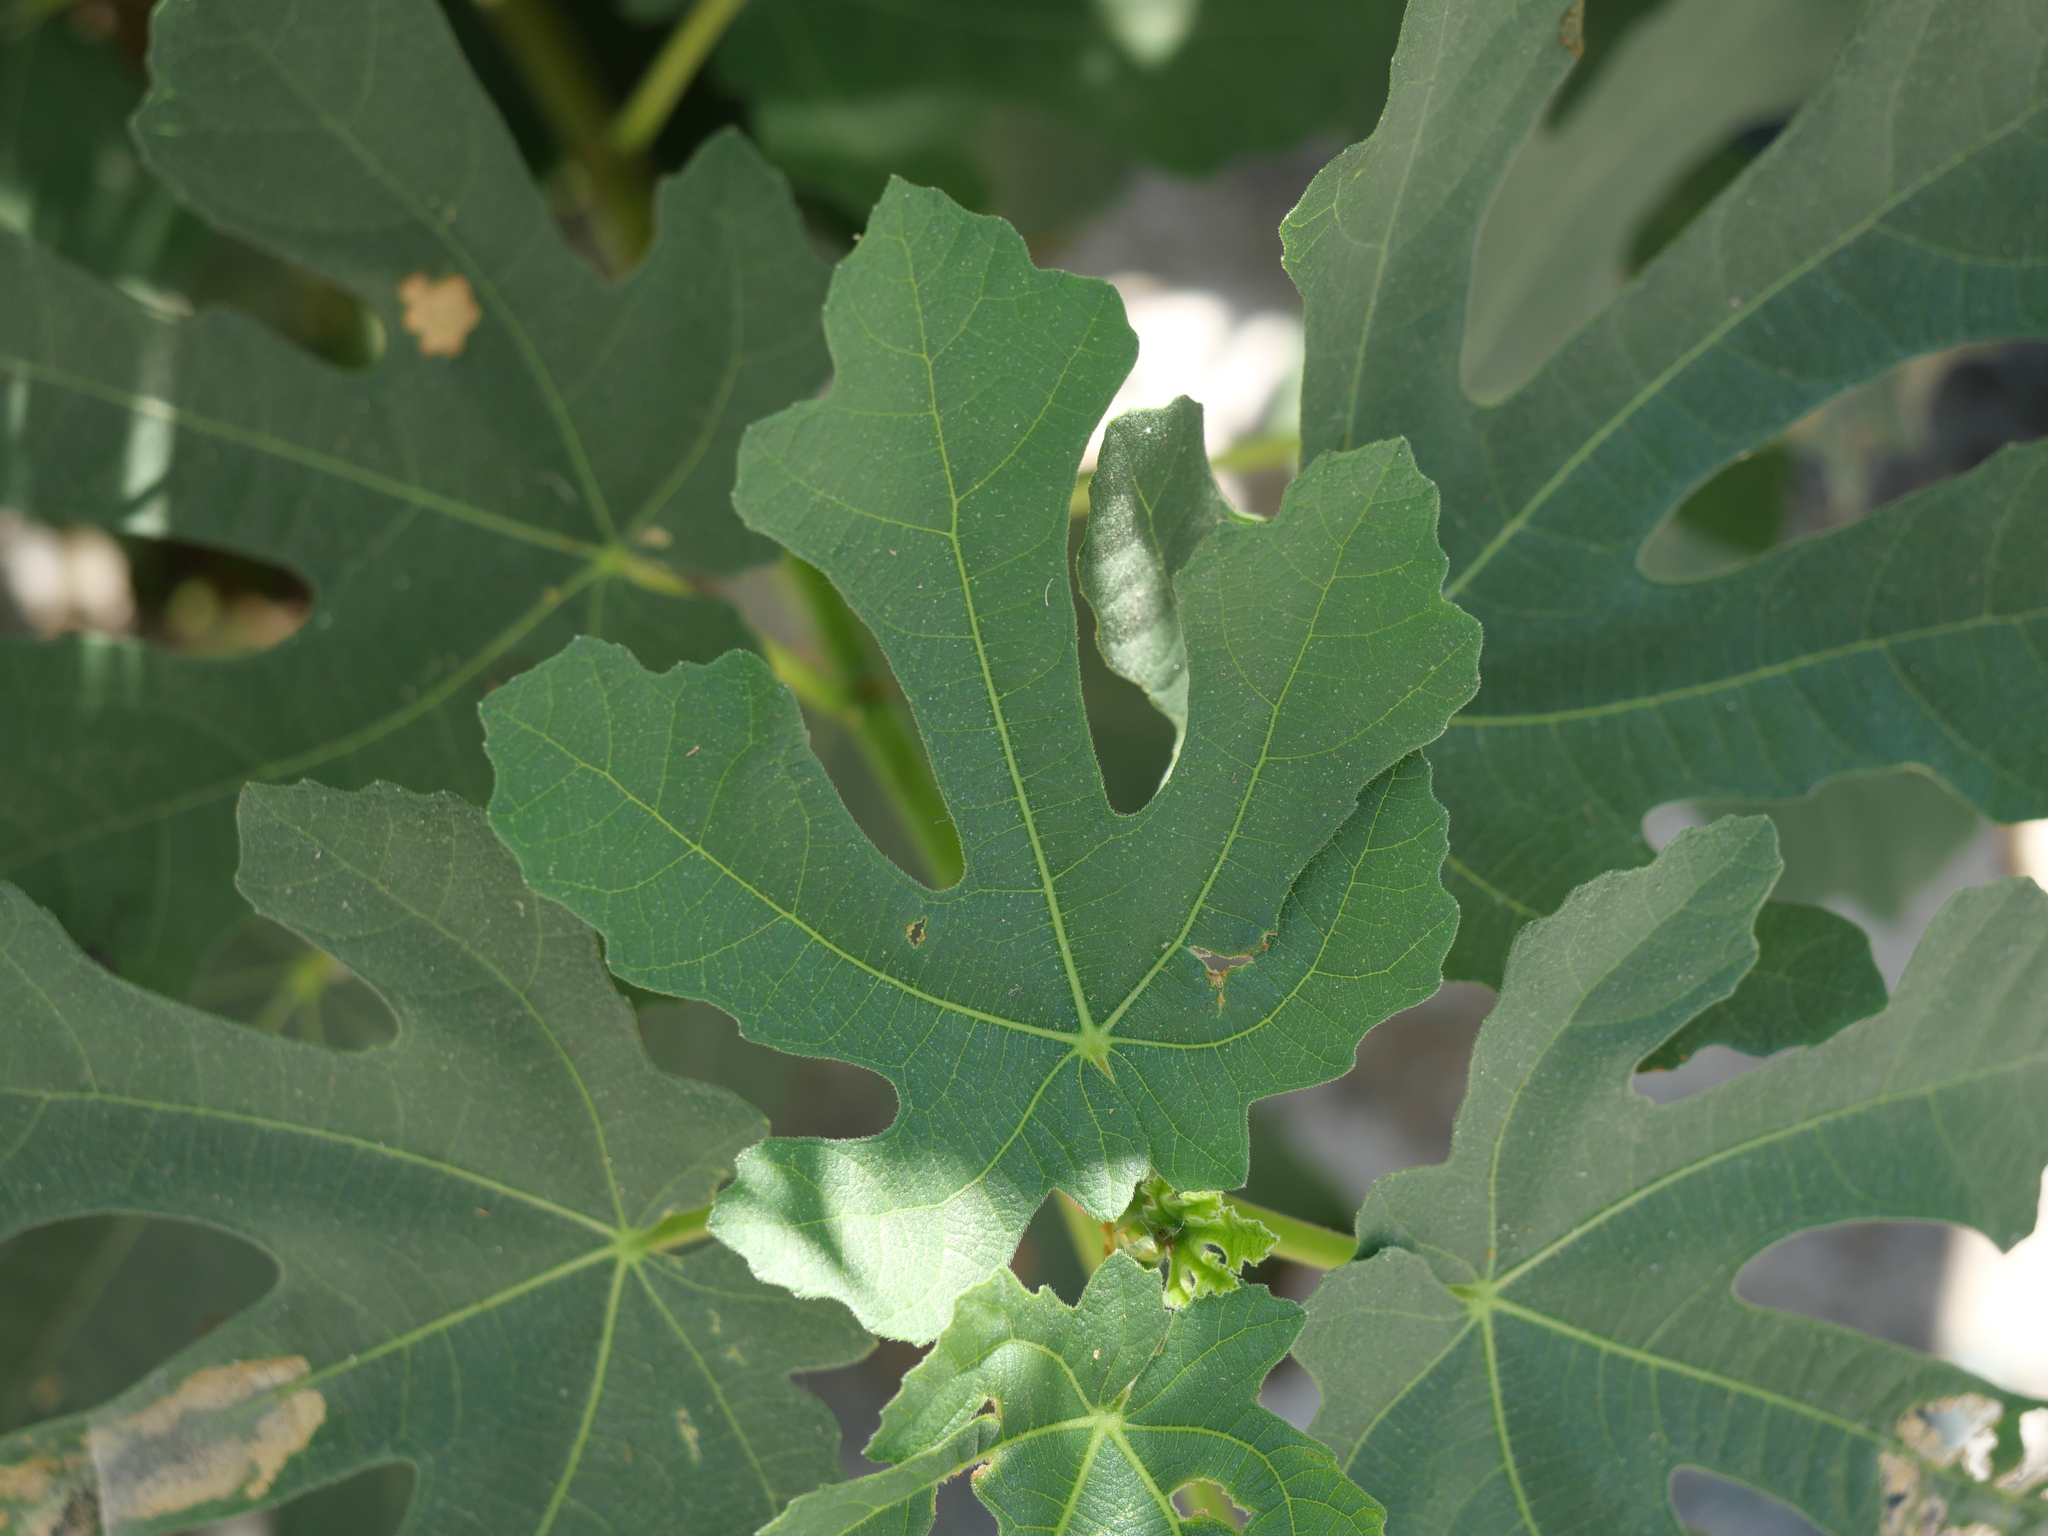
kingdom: Plantae
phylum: Tracheophyta
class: Magnoliopsida
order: Rosales
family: Moraceae
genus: Ficus
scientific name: Ficus carica
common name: Fig
